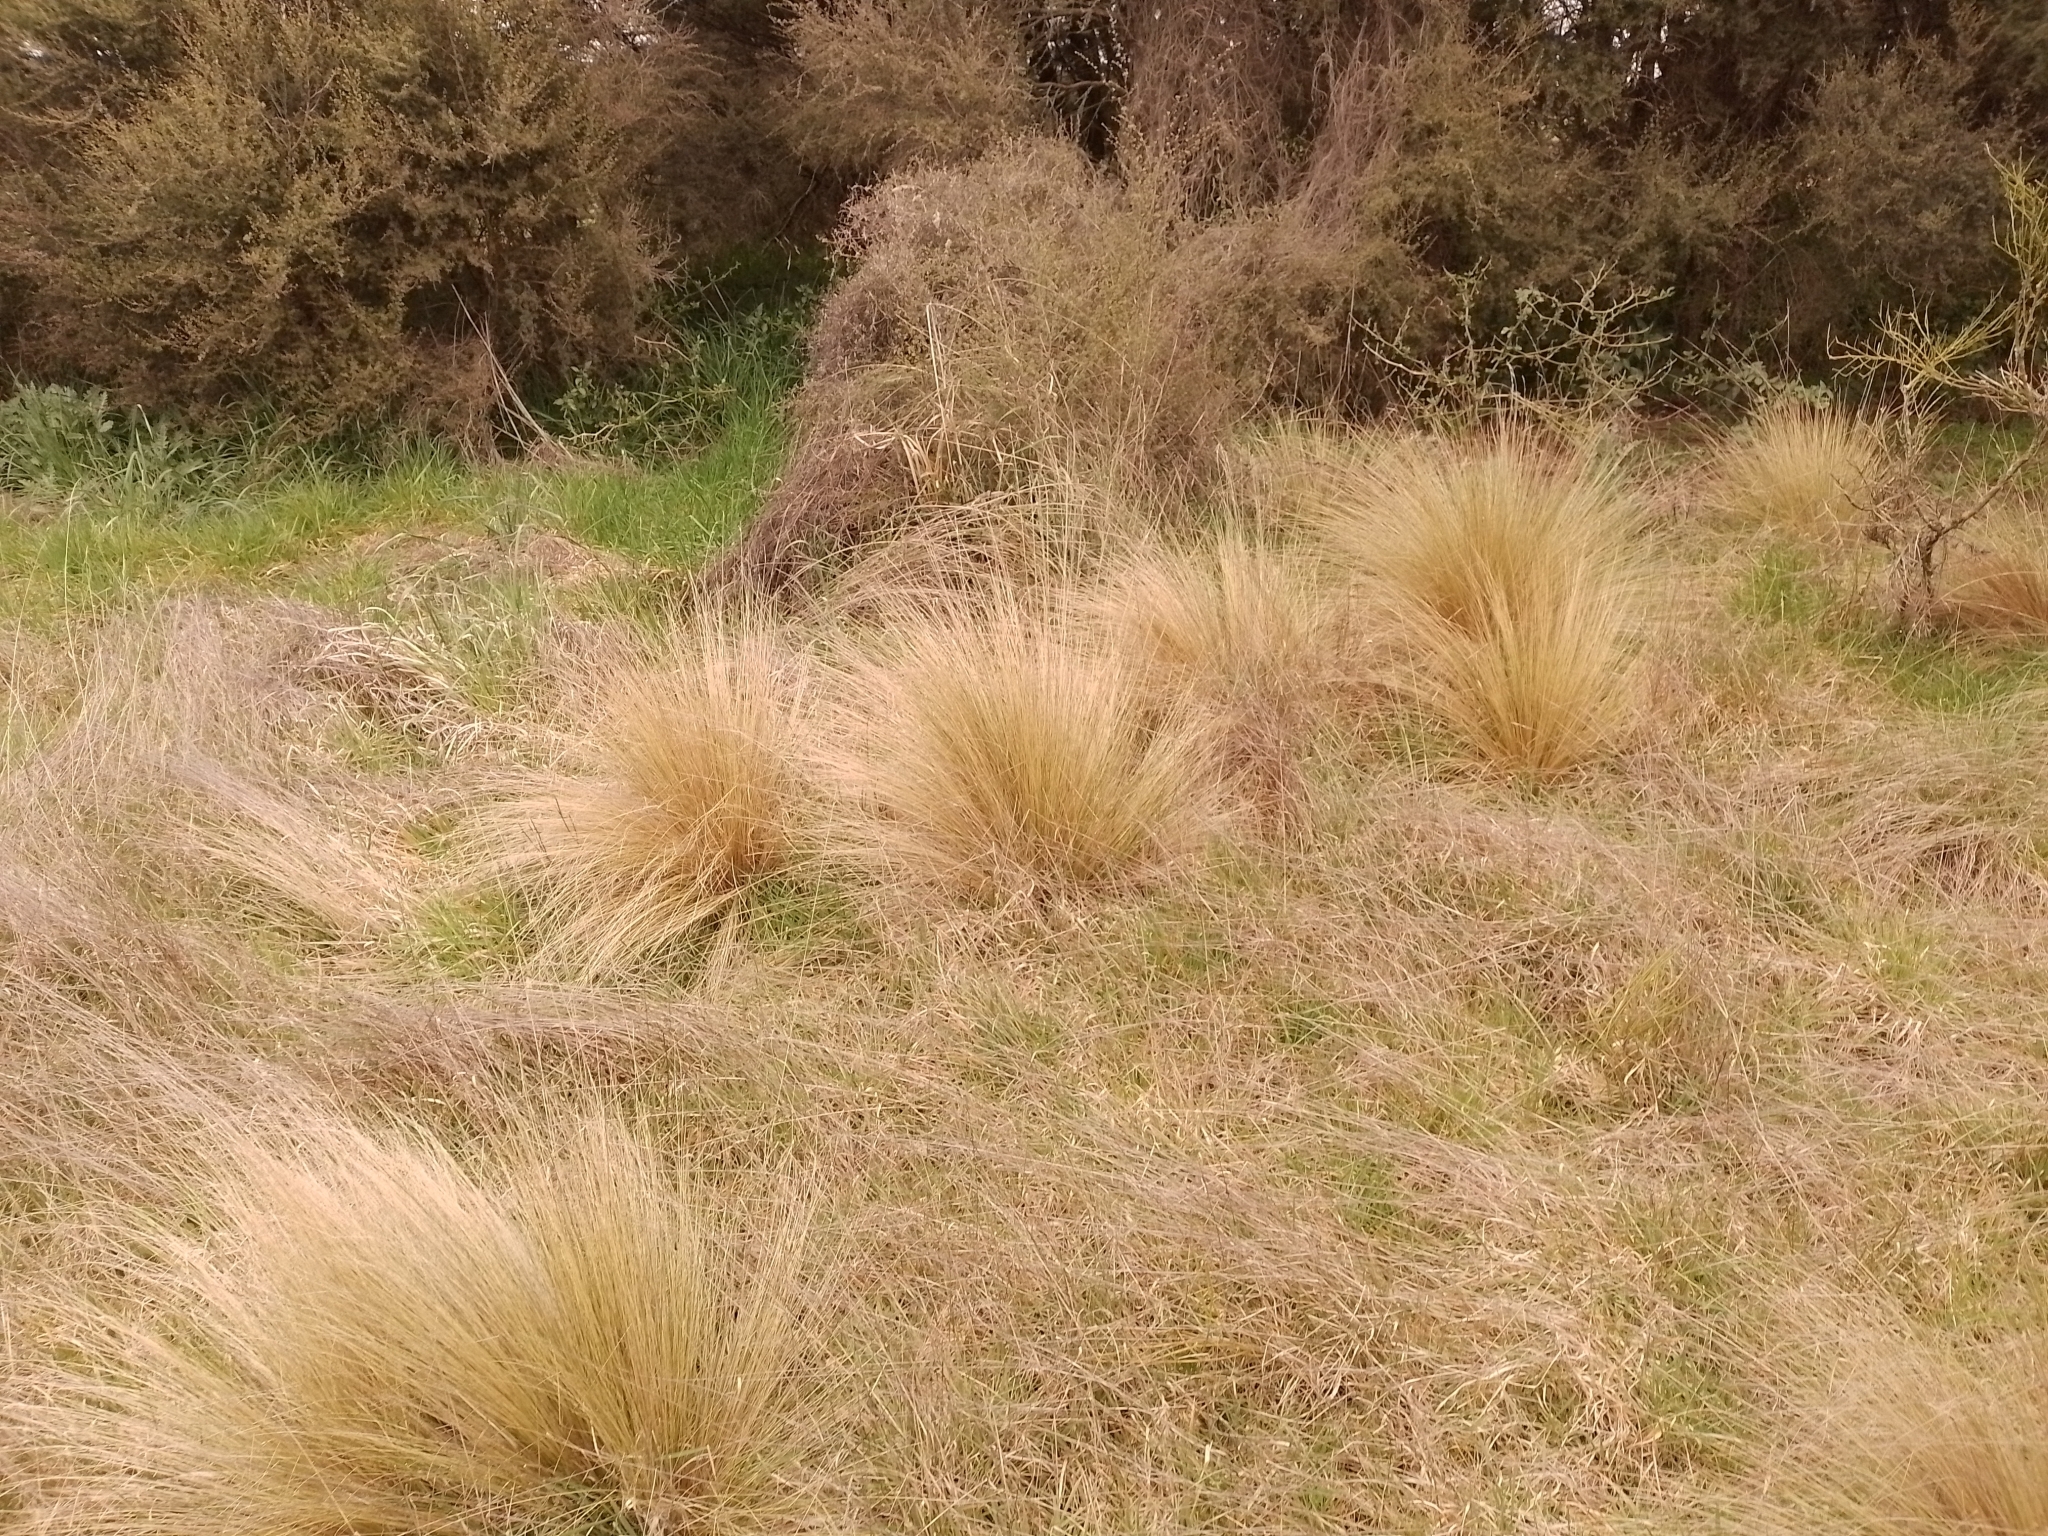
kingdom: Plantae
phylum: Tracheophyta
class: Liliopsida
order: Poales
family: Poaceae
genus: Poa
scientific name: Poa cita
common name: Silver tussock
